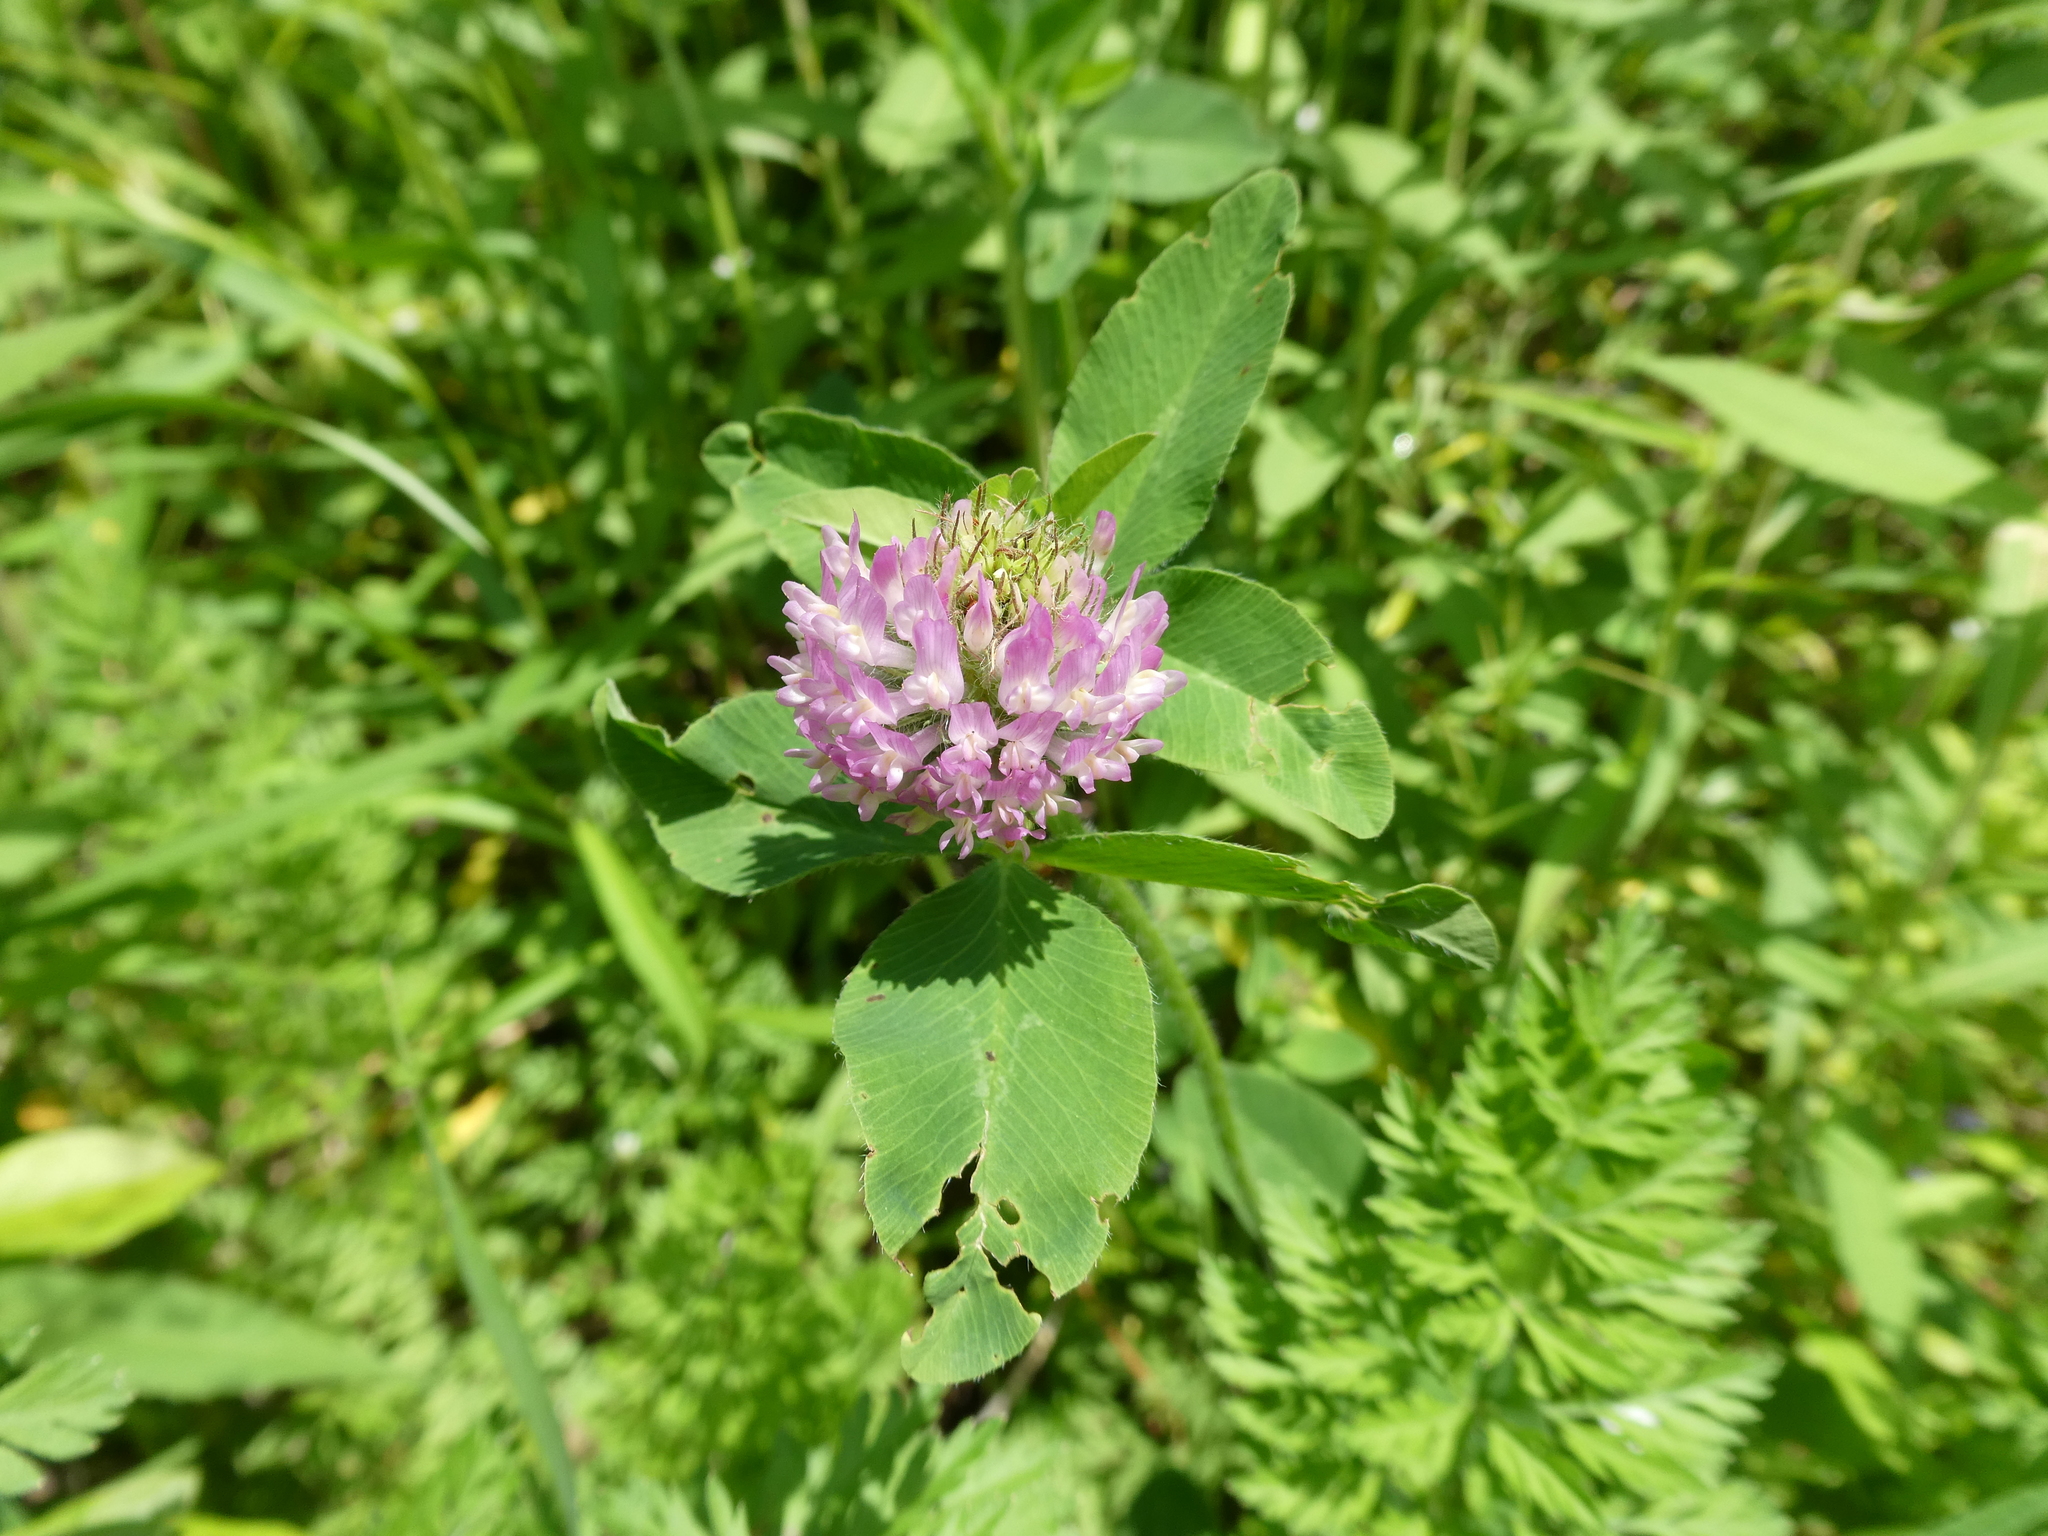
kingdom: Plantae
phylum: Tracheophyta
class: Magnoliopsida
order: Fabales
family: Fabaceae
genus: Trifolium
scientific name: Trifolium pratense
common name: Red clover
